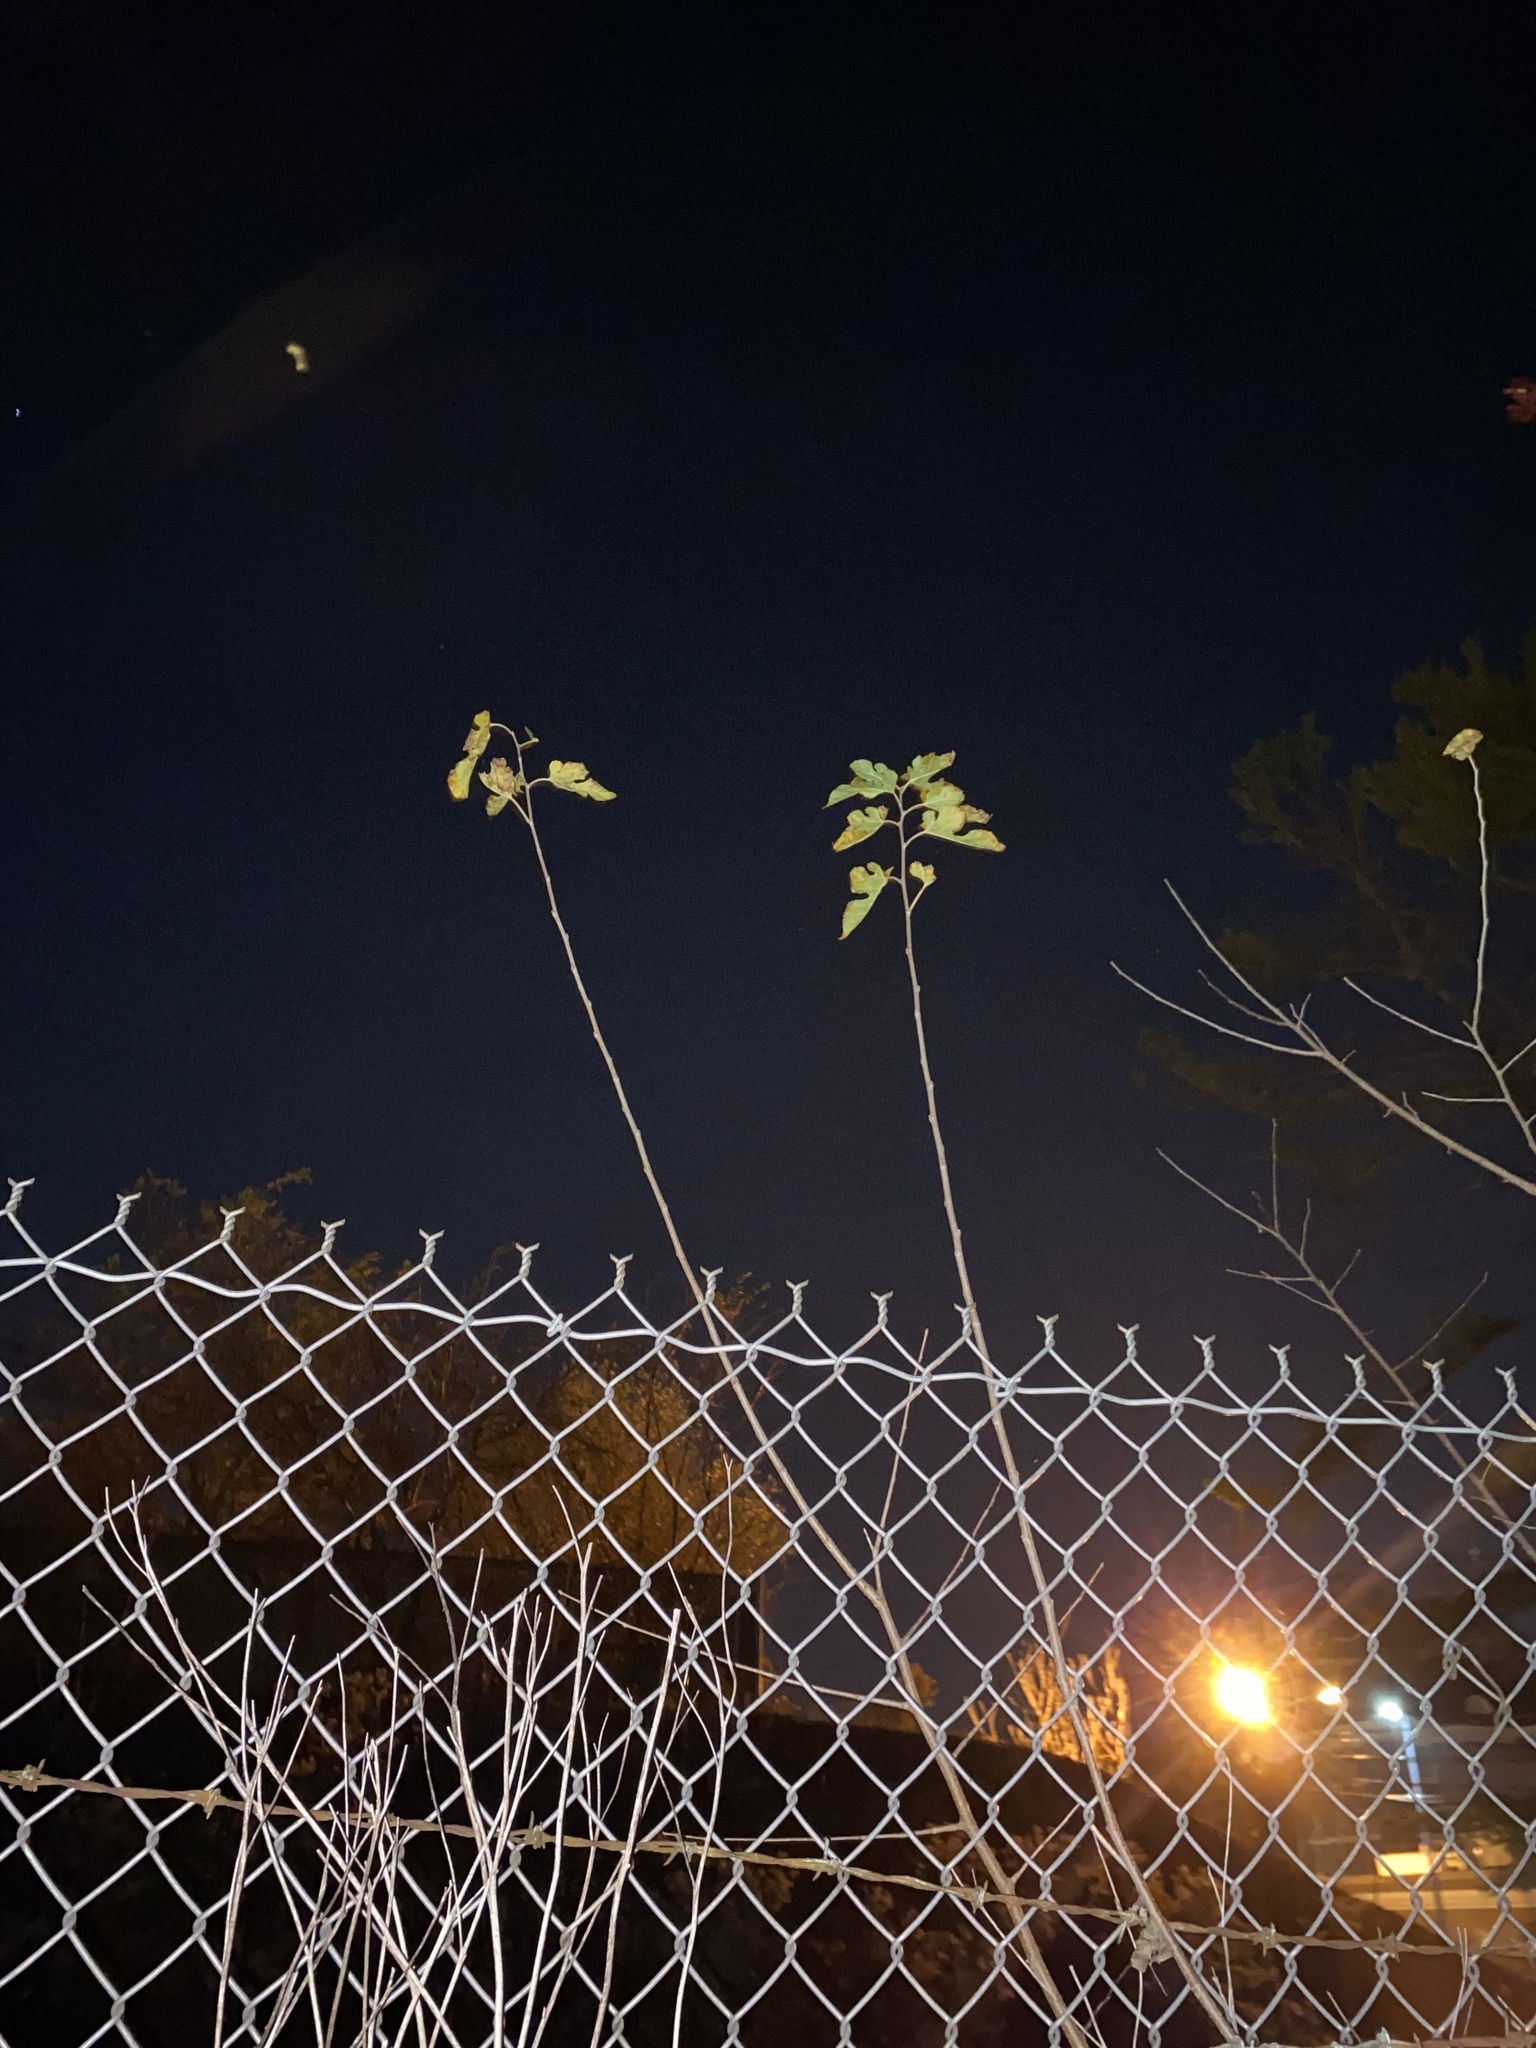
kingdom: Plantae
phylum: Tracheophyta
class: Magnoliopsida
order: Rosales
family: Moraceae
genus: Morus
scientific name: Morus alba
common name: White mulberry
